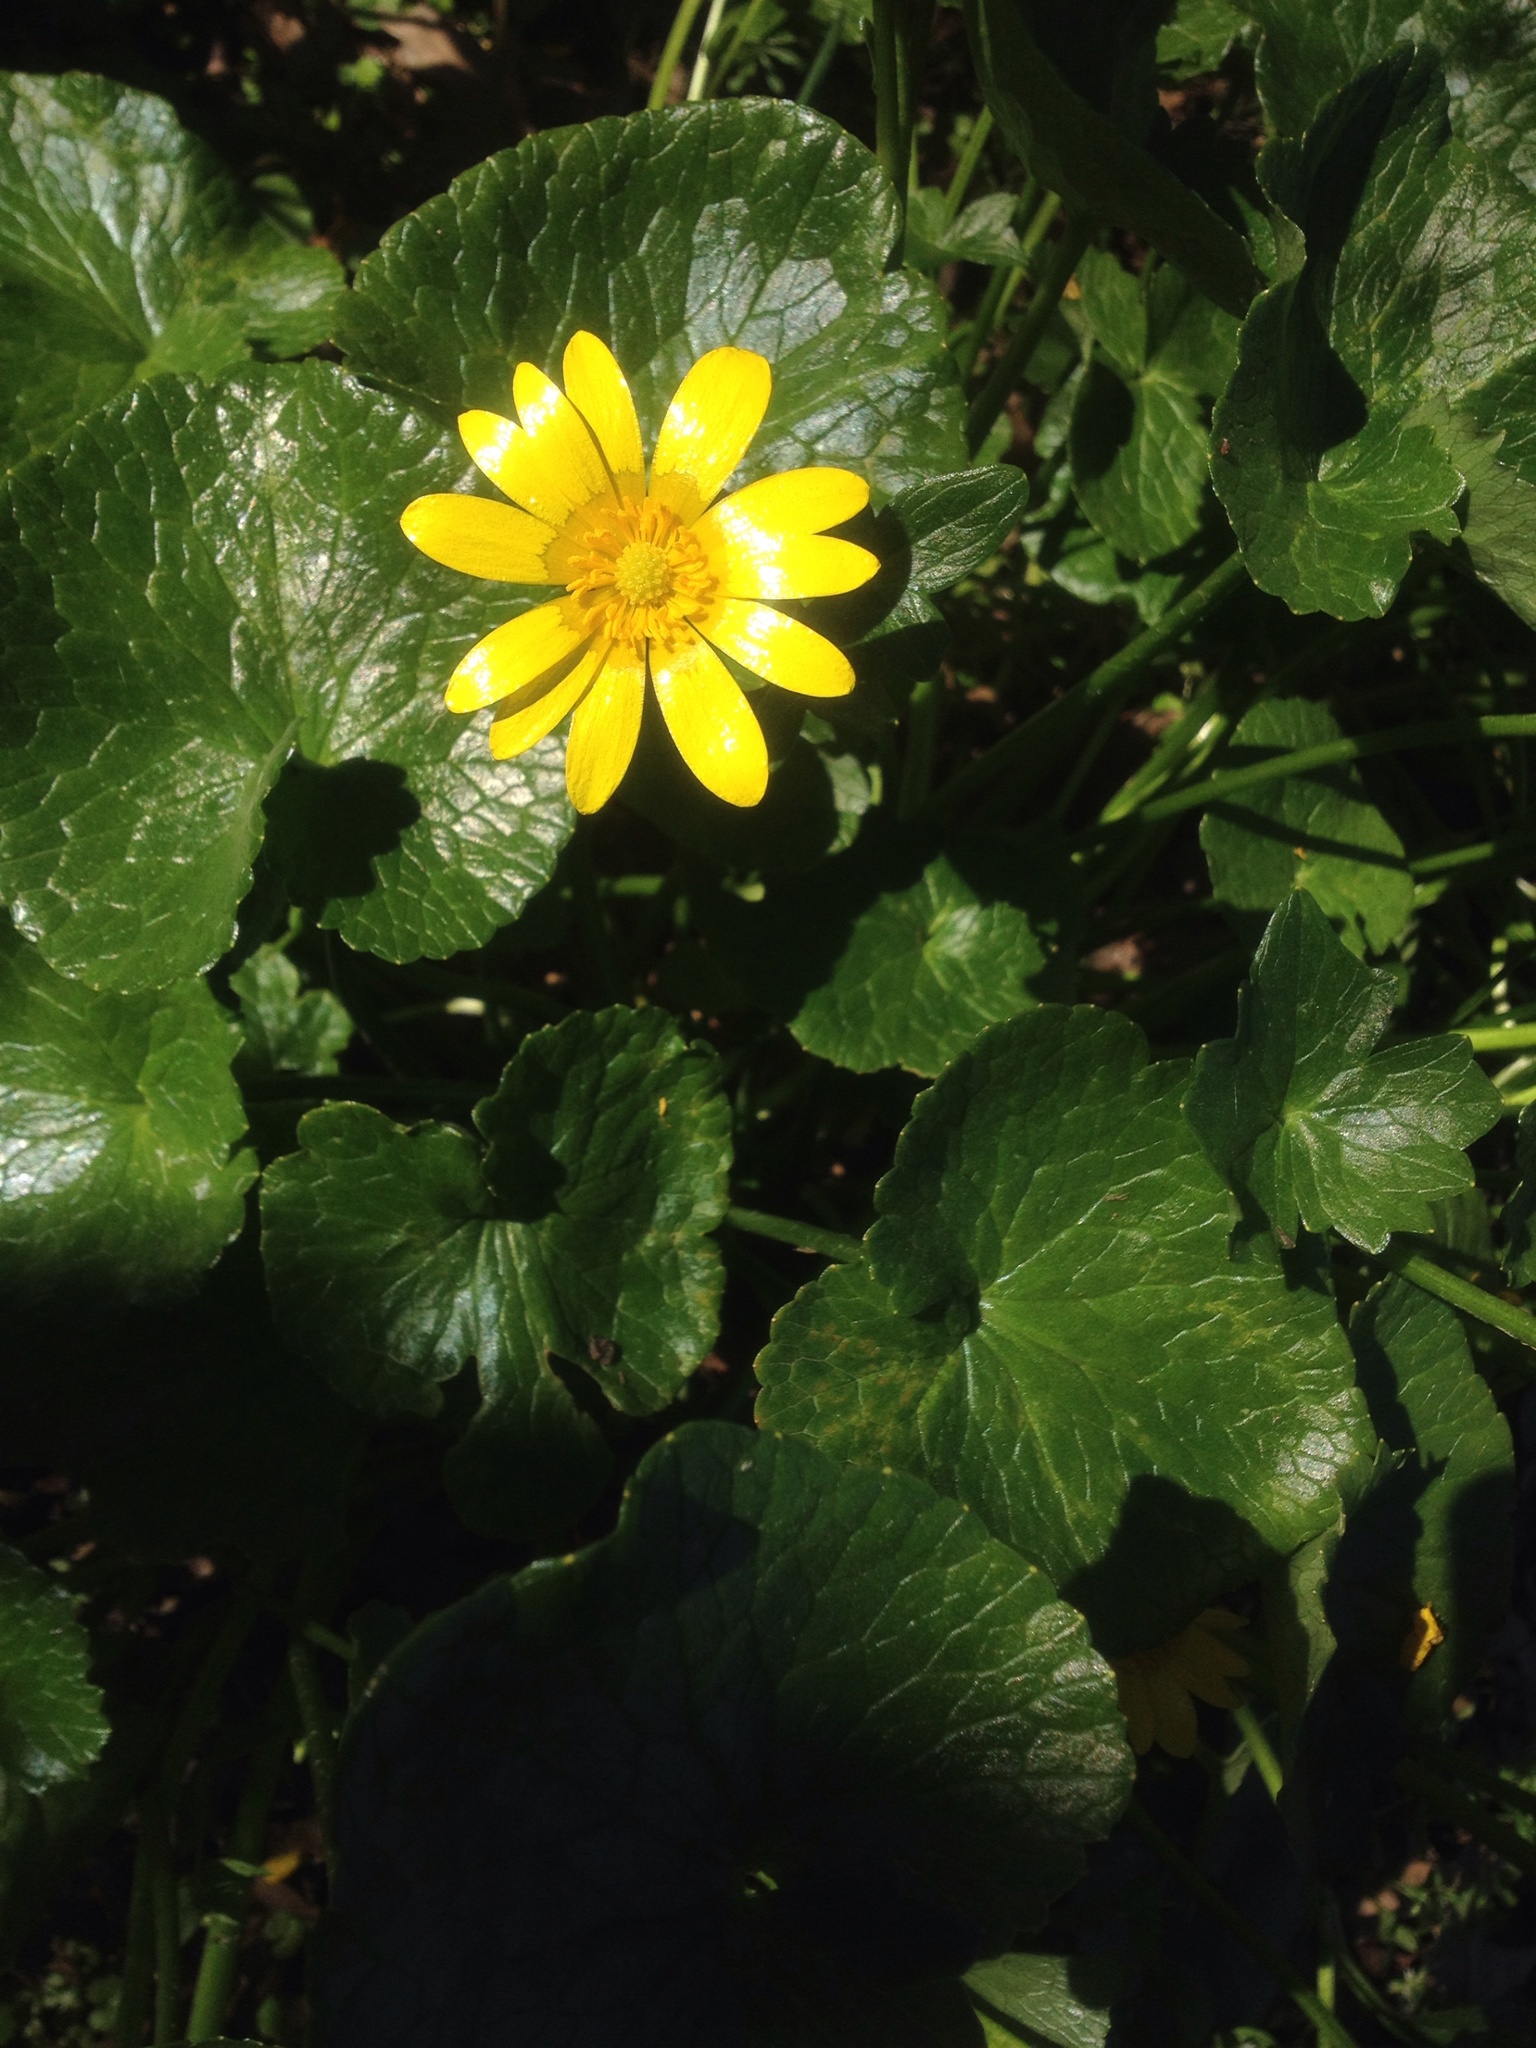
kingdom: Plantae
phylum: Tracheophyta
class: Magnoliopsida
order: Ranunculales
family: Ranunculaceae
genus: Ficaria
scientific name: Ficaria grandiflora
